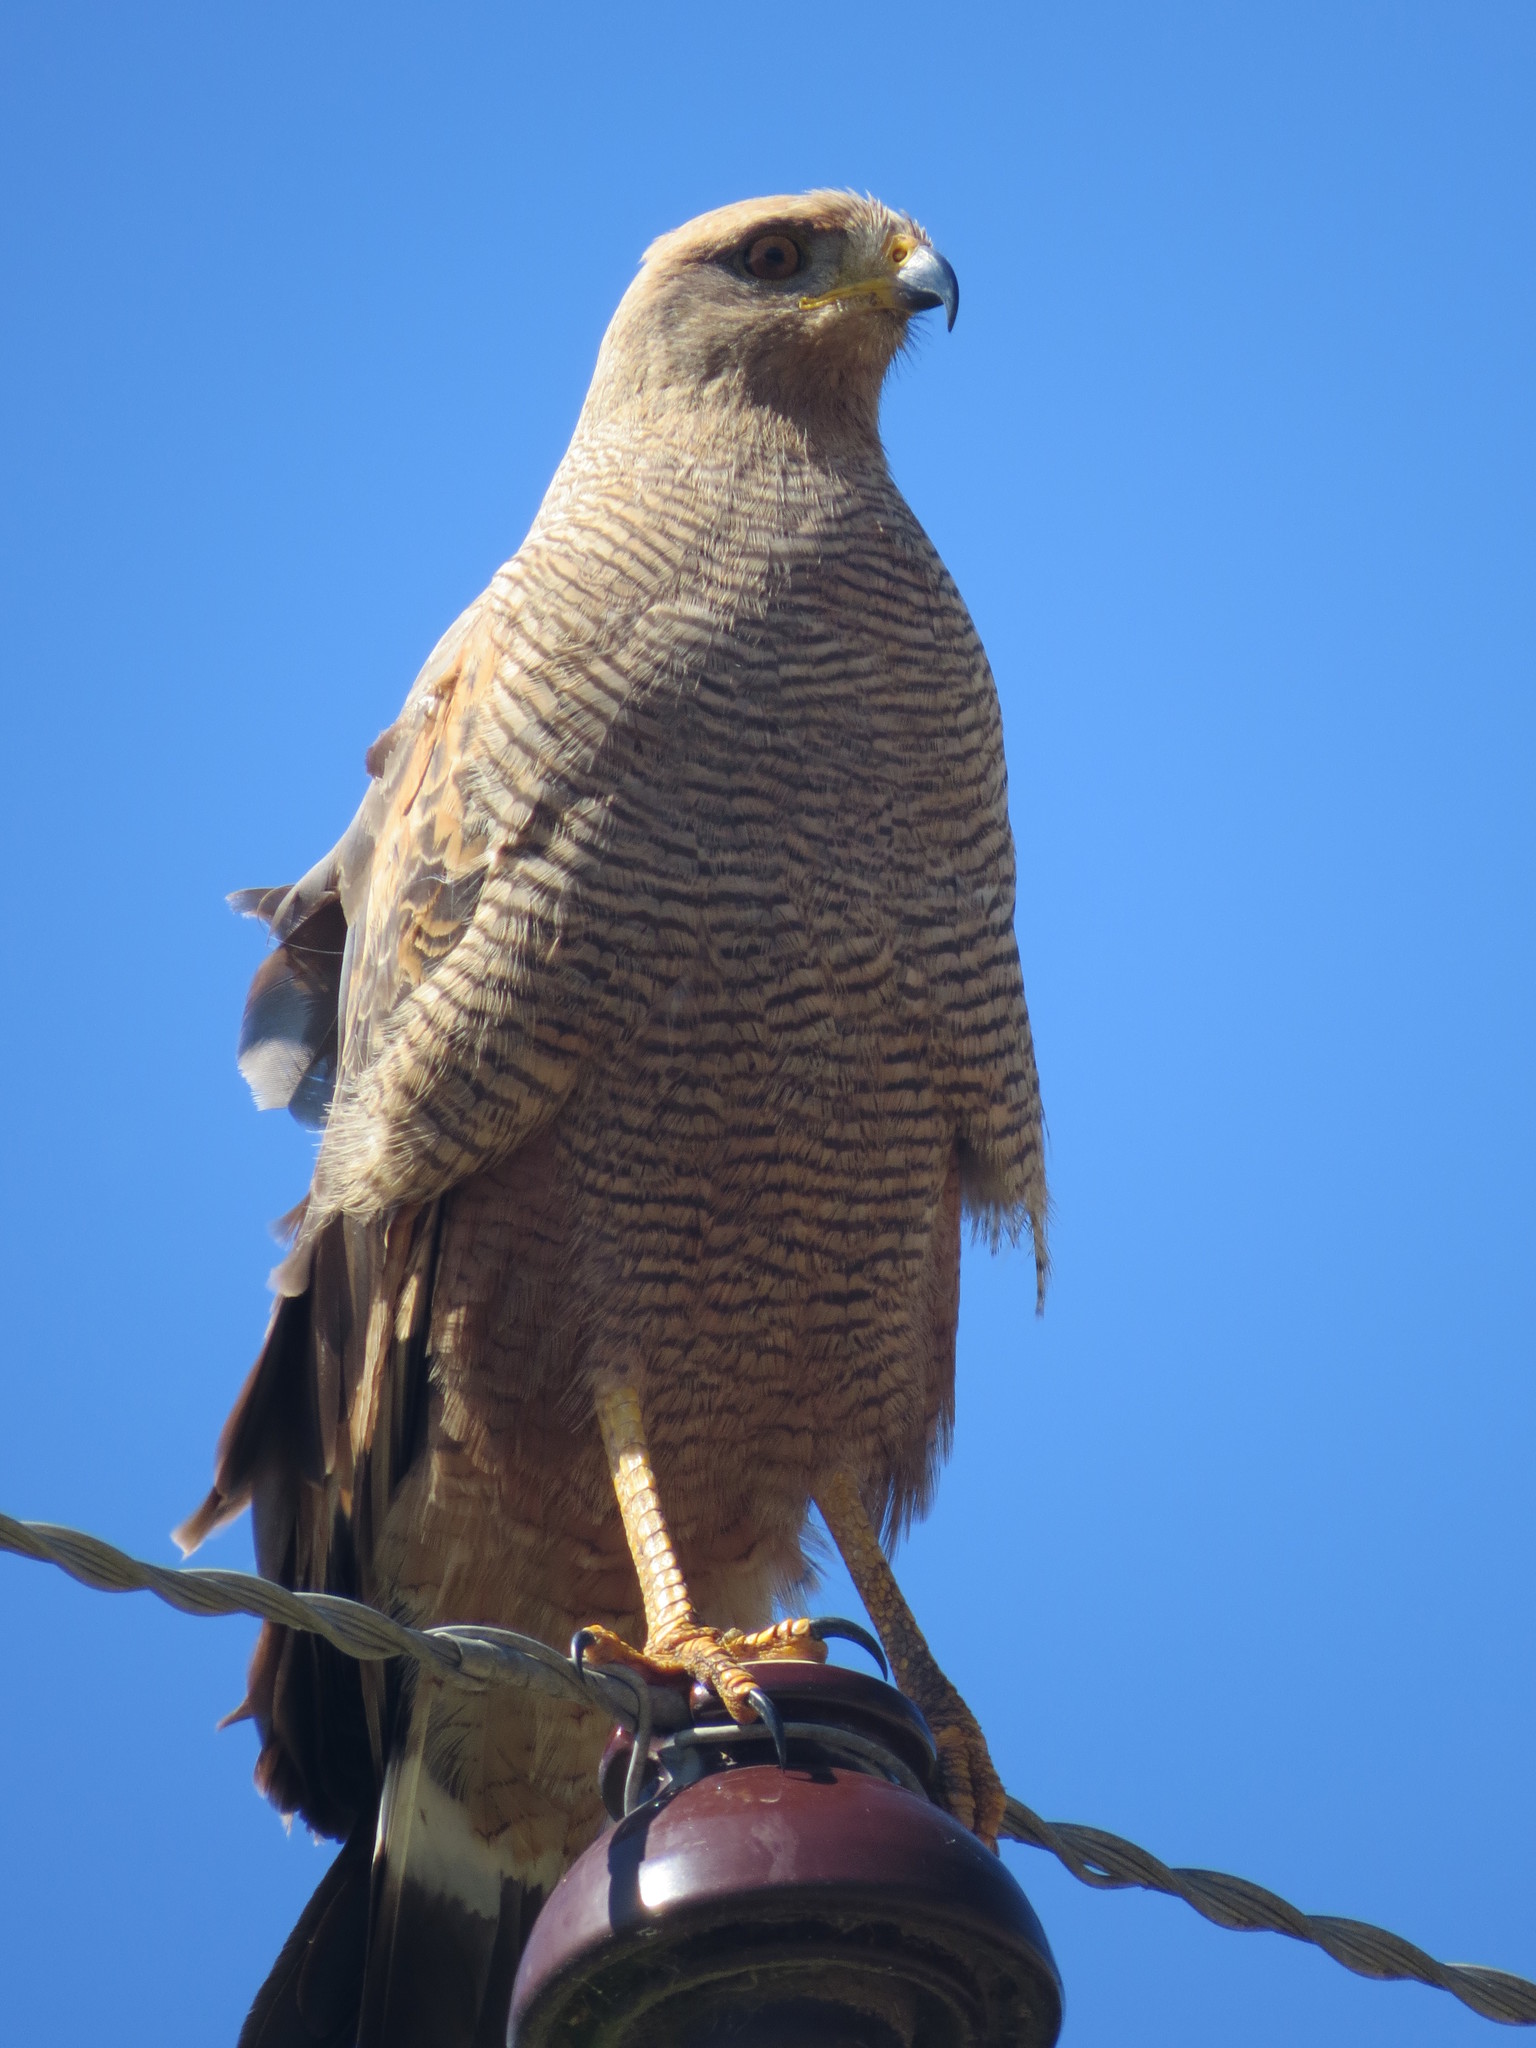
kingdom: Animalia
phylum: Chordata
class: Aves
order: Accipitriformes
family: Accipitridae
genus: Buteogallus
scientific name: Buteogallus meridionalis
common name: Savanna hawk
